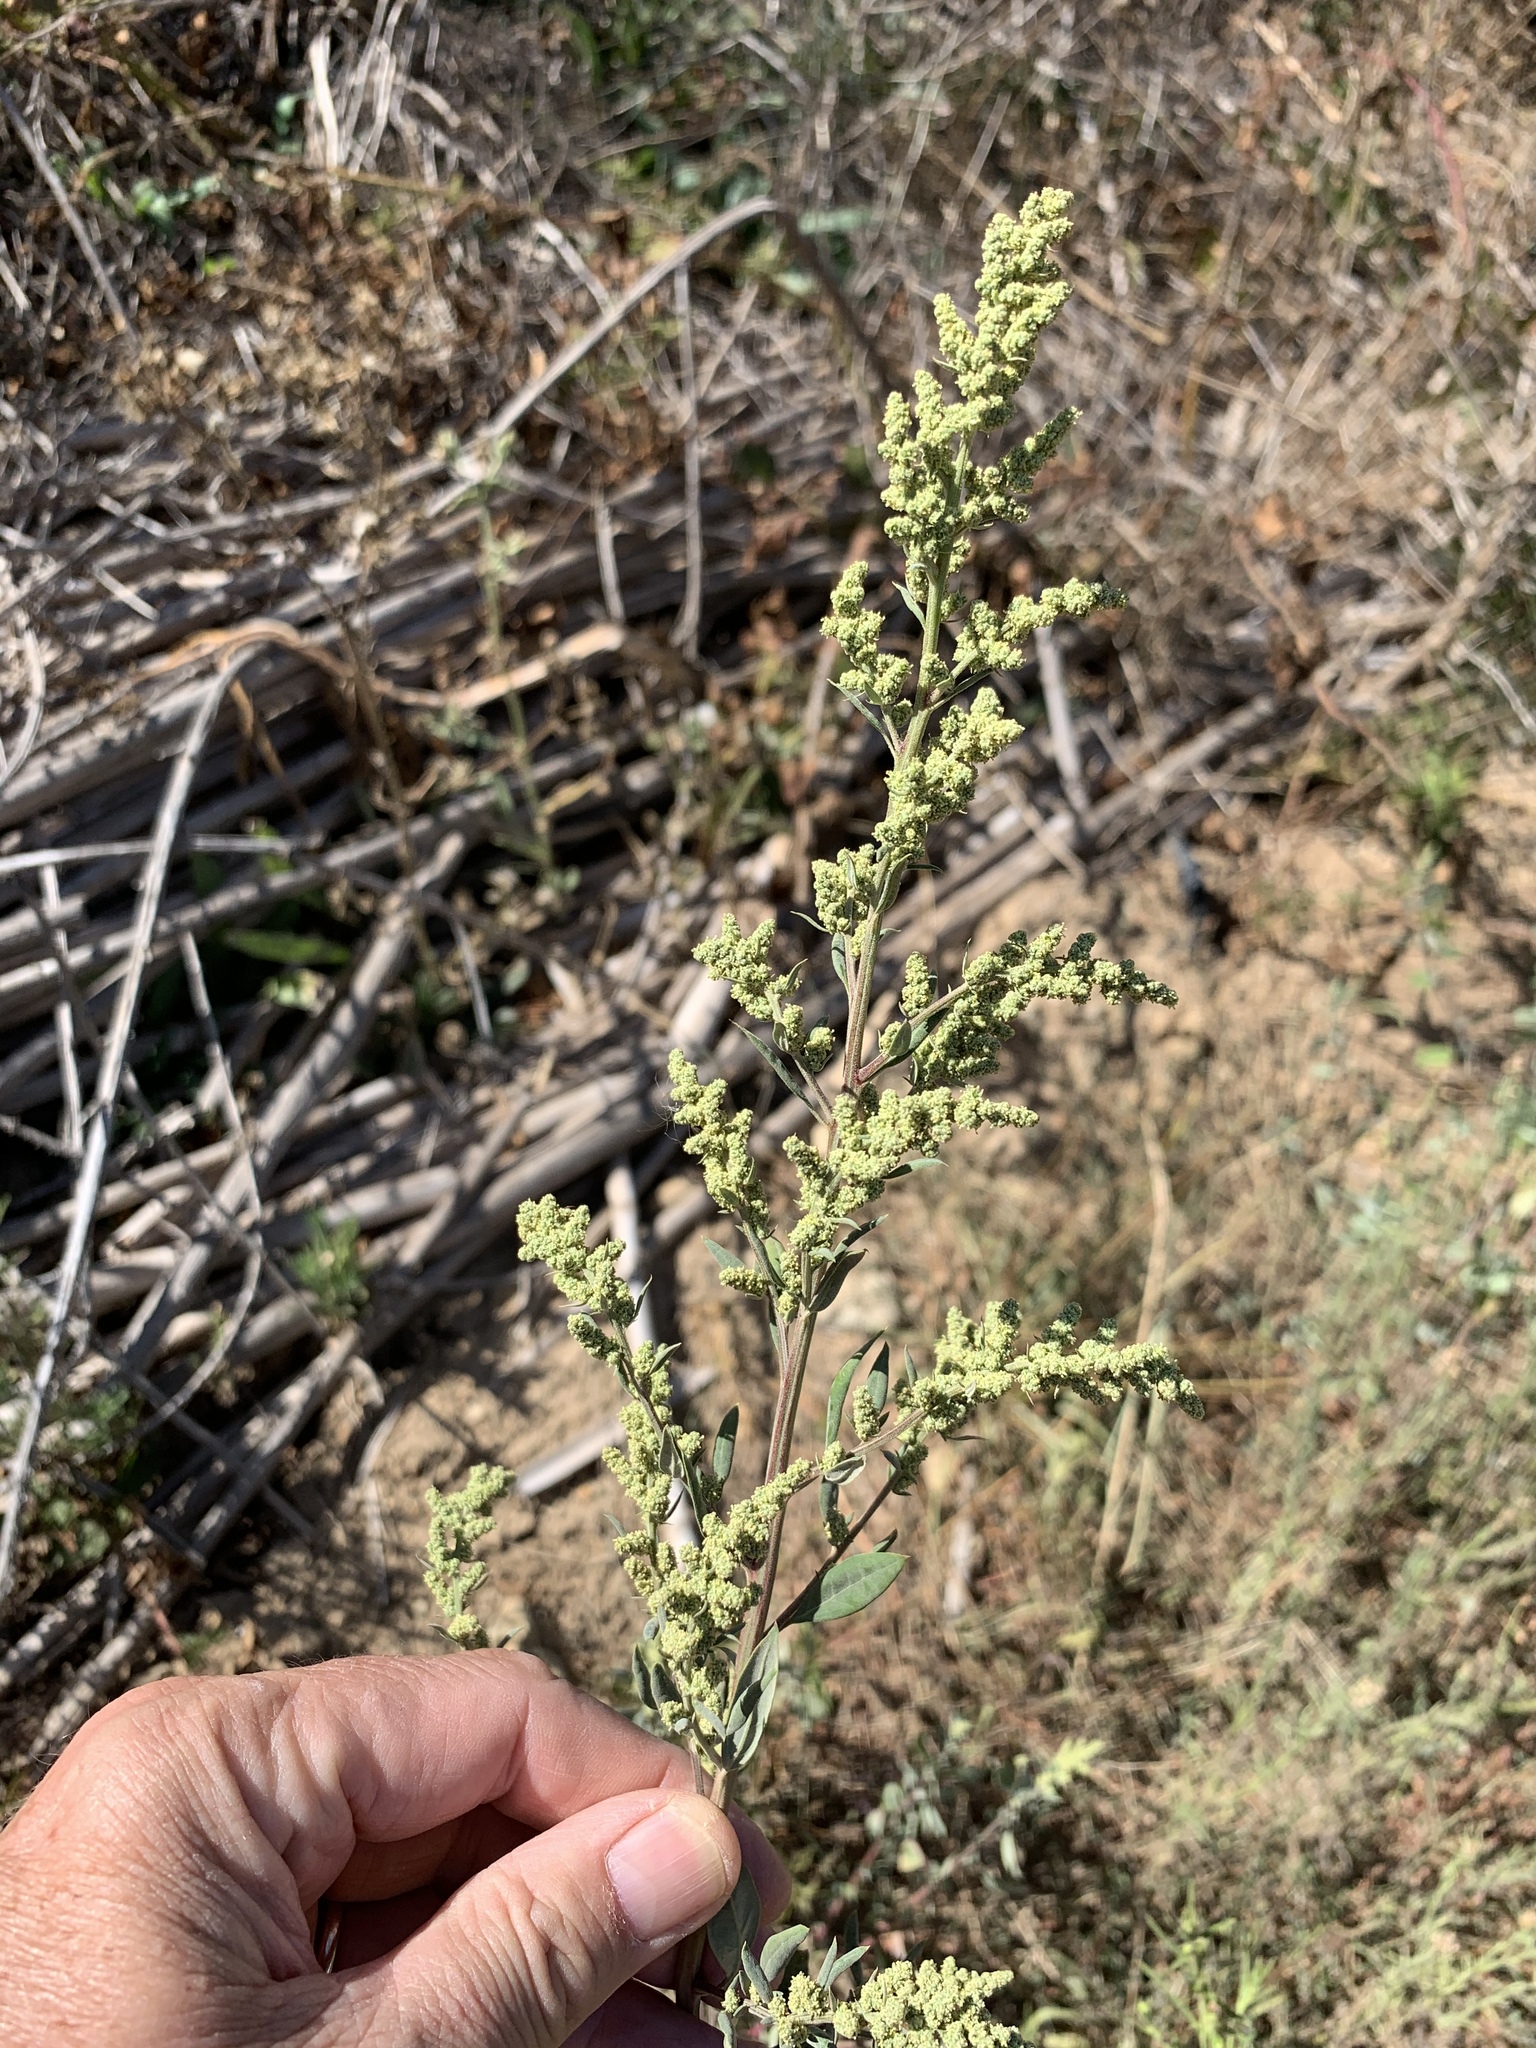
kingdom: Plantae
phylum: Tracheophyta
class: Magnoliopsida
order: Caryophyllales
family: Amaranthaceae
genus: Chenopodium
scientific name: Chenopodium album
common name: Fat-hen
